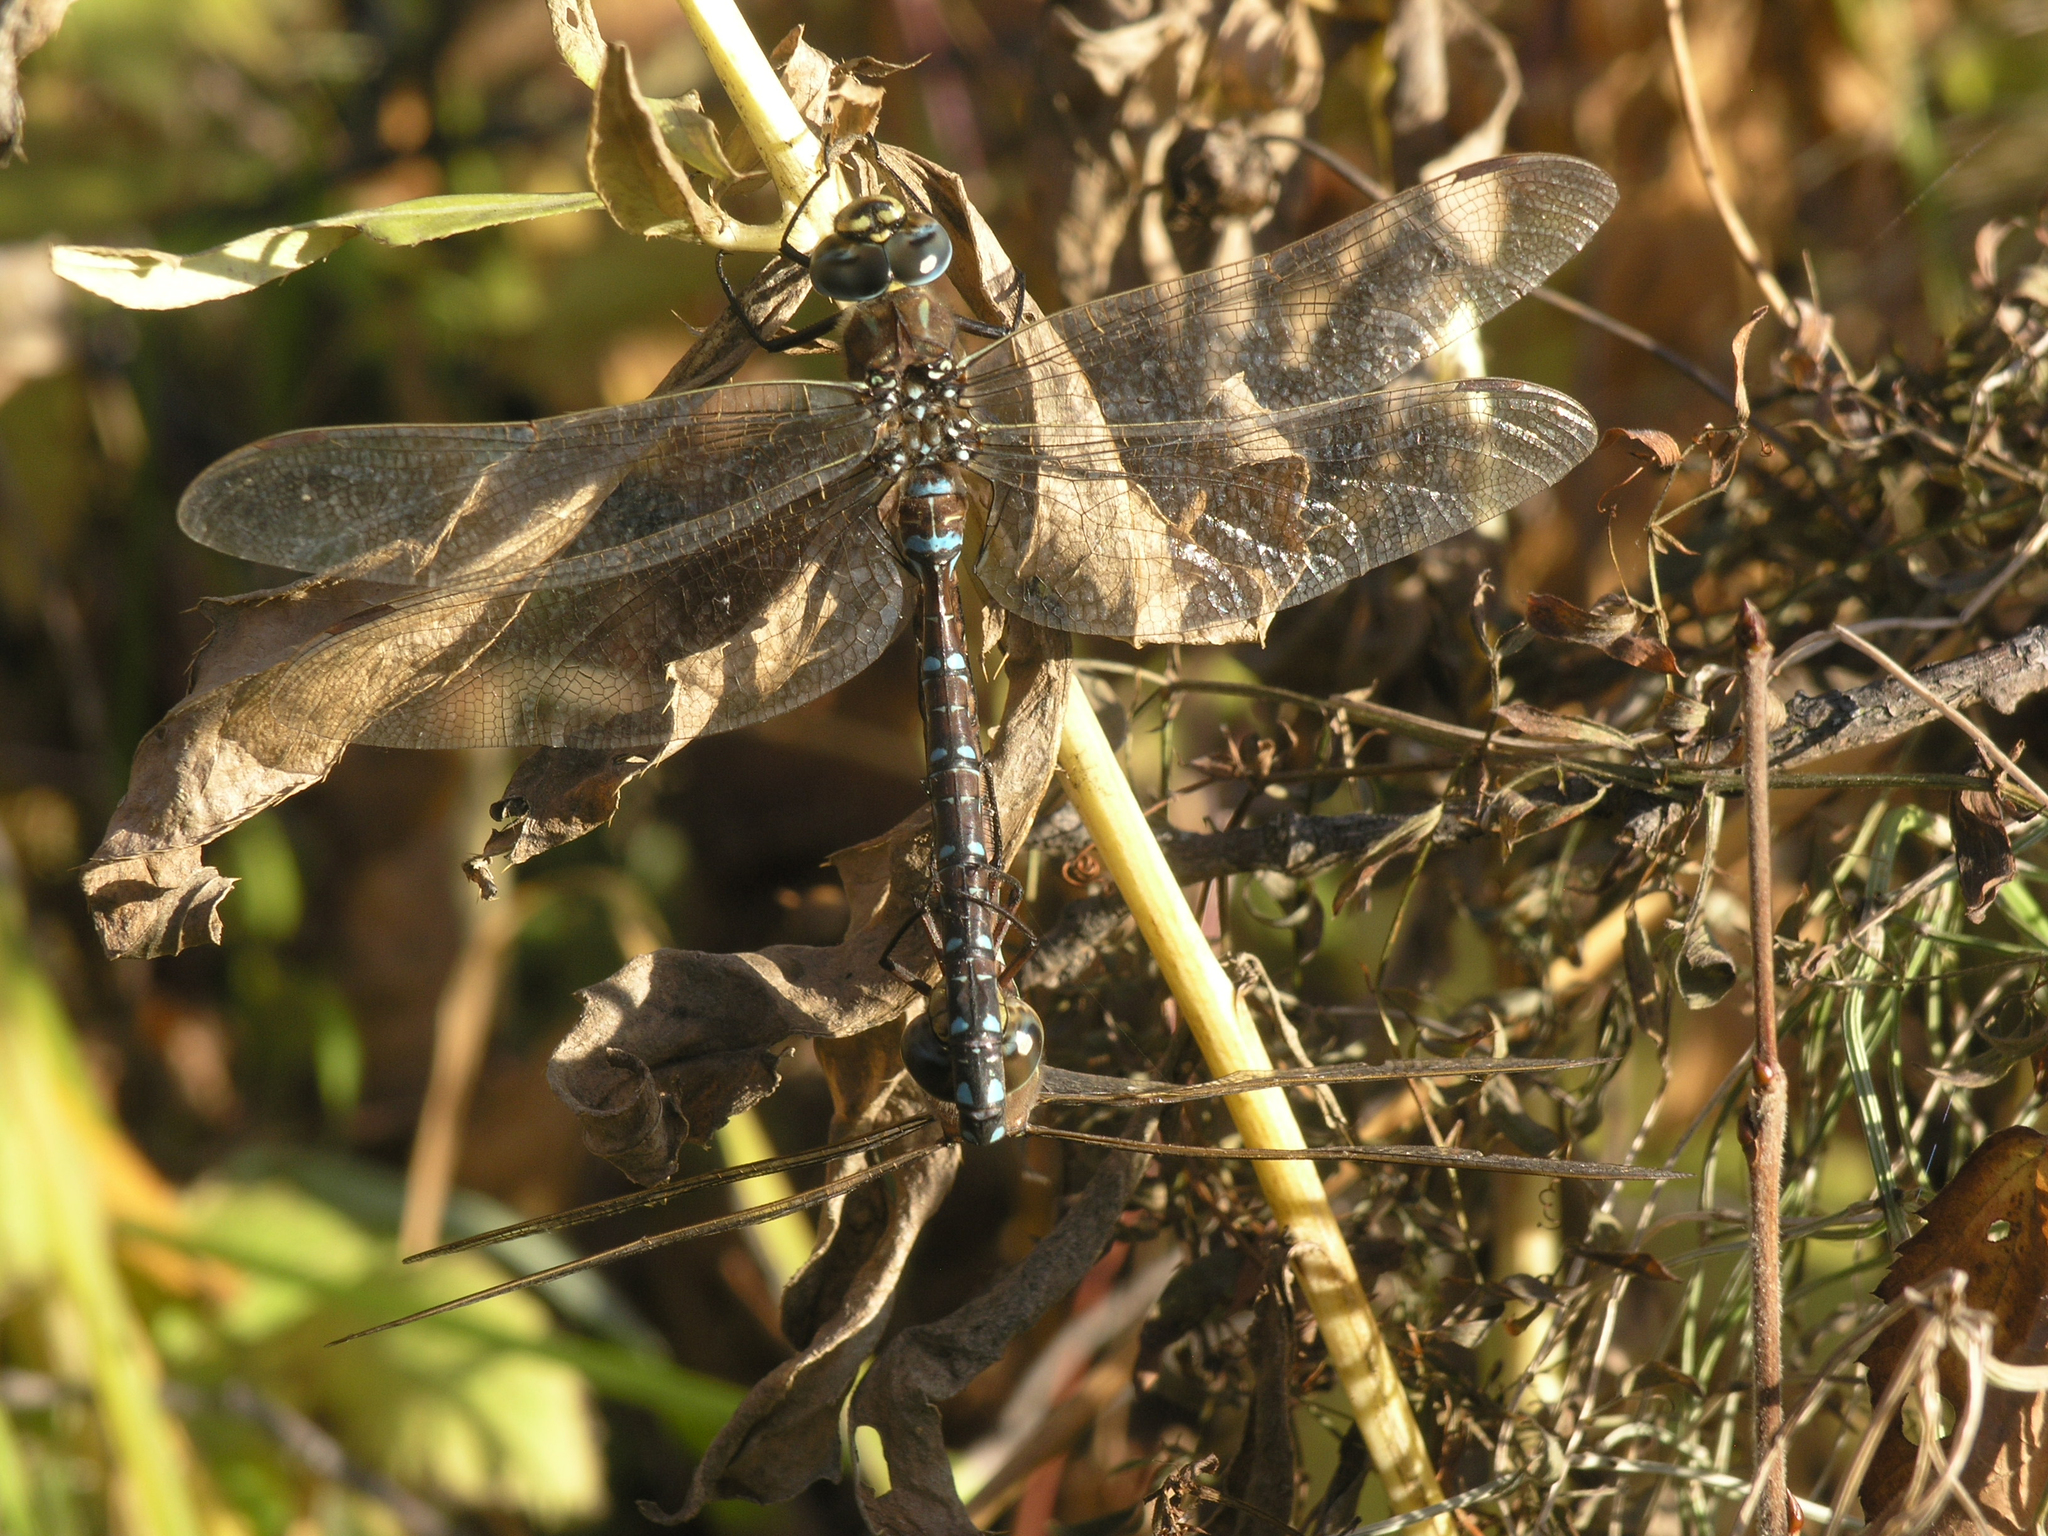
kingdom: Animalia
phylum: Arthropoda
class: Insecta
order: Odonata
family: Aeshnidae
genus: Aeshna
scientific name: Aeshna juncea
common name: Moorland hawker
